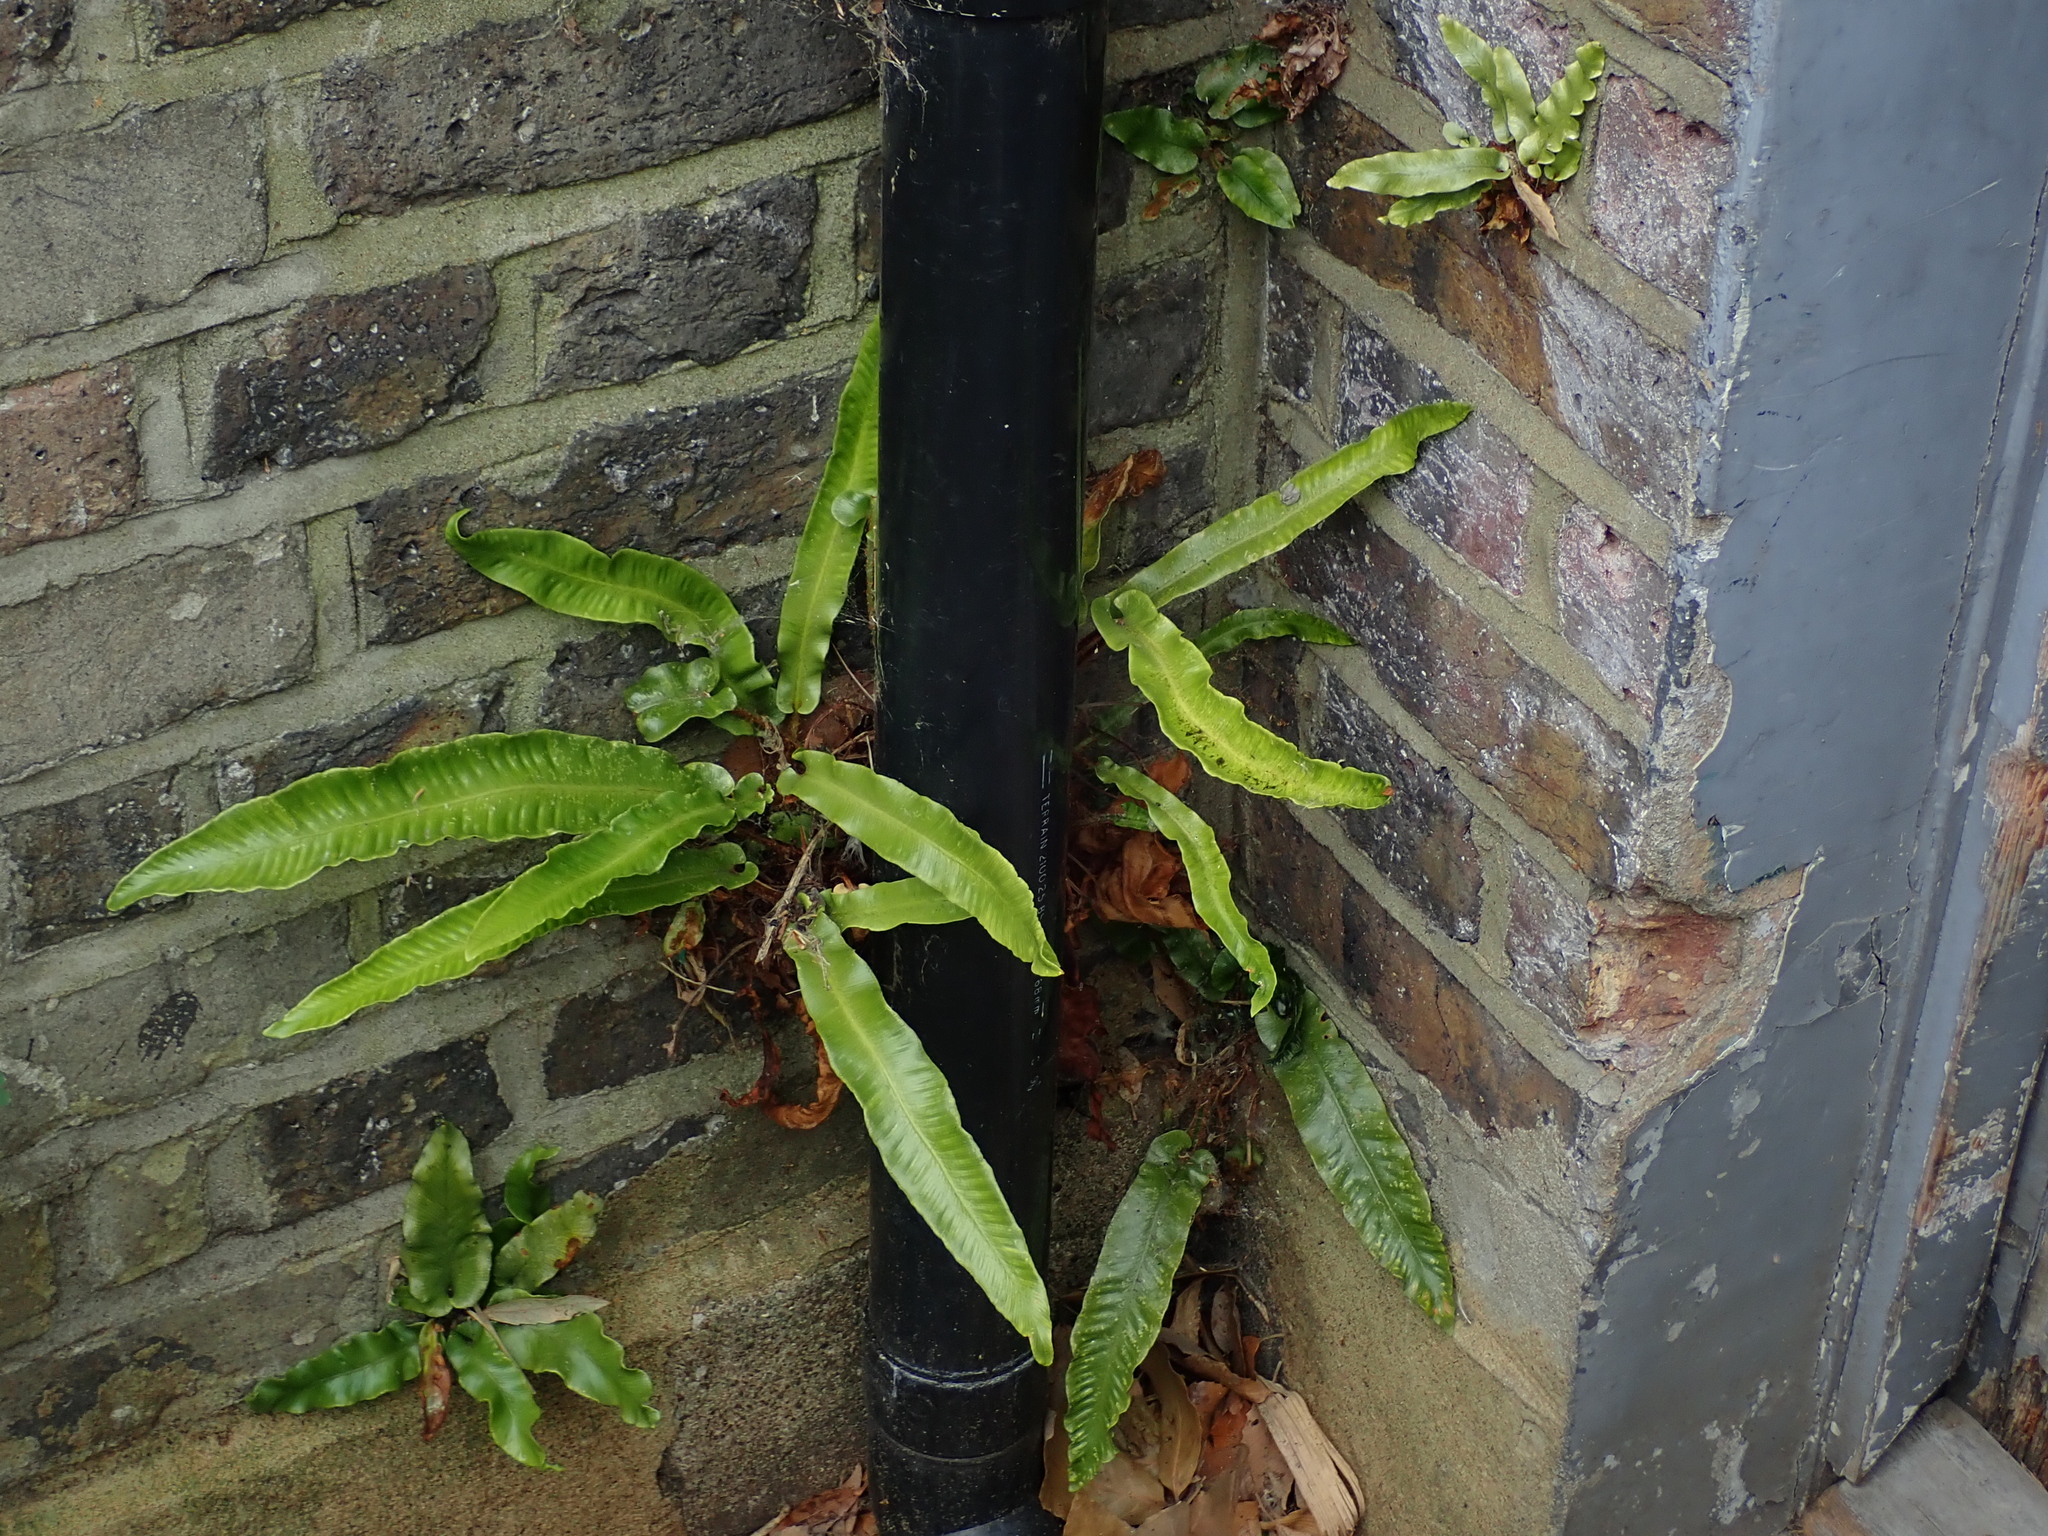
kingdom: Plantae
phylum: Tracheophyta
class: Polypodiopsida
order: Polypodiales
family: Aspleniaceae
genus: Asplenium
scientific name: Asplenium scolopendrium
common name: Hart's-tongue fern
